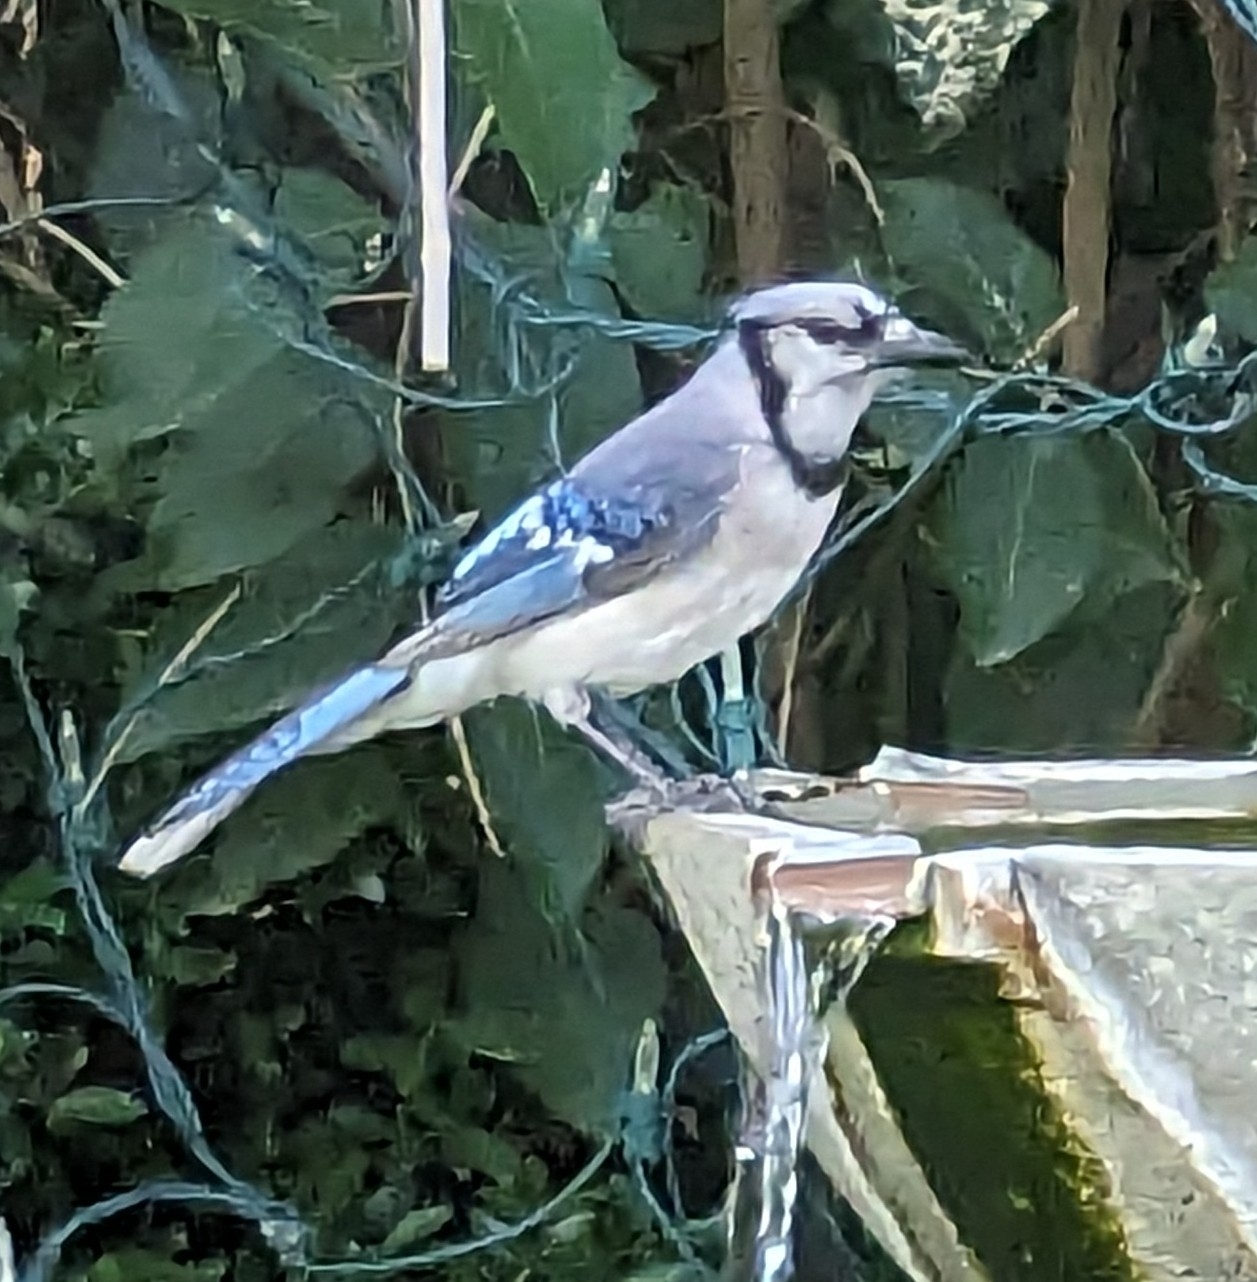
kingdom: Animalia
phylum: Chordata
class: Aves
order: Passeriformes
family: Corvidae
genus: Cyanocitta
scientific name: Cyanocitta cristata
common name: Blue jay
